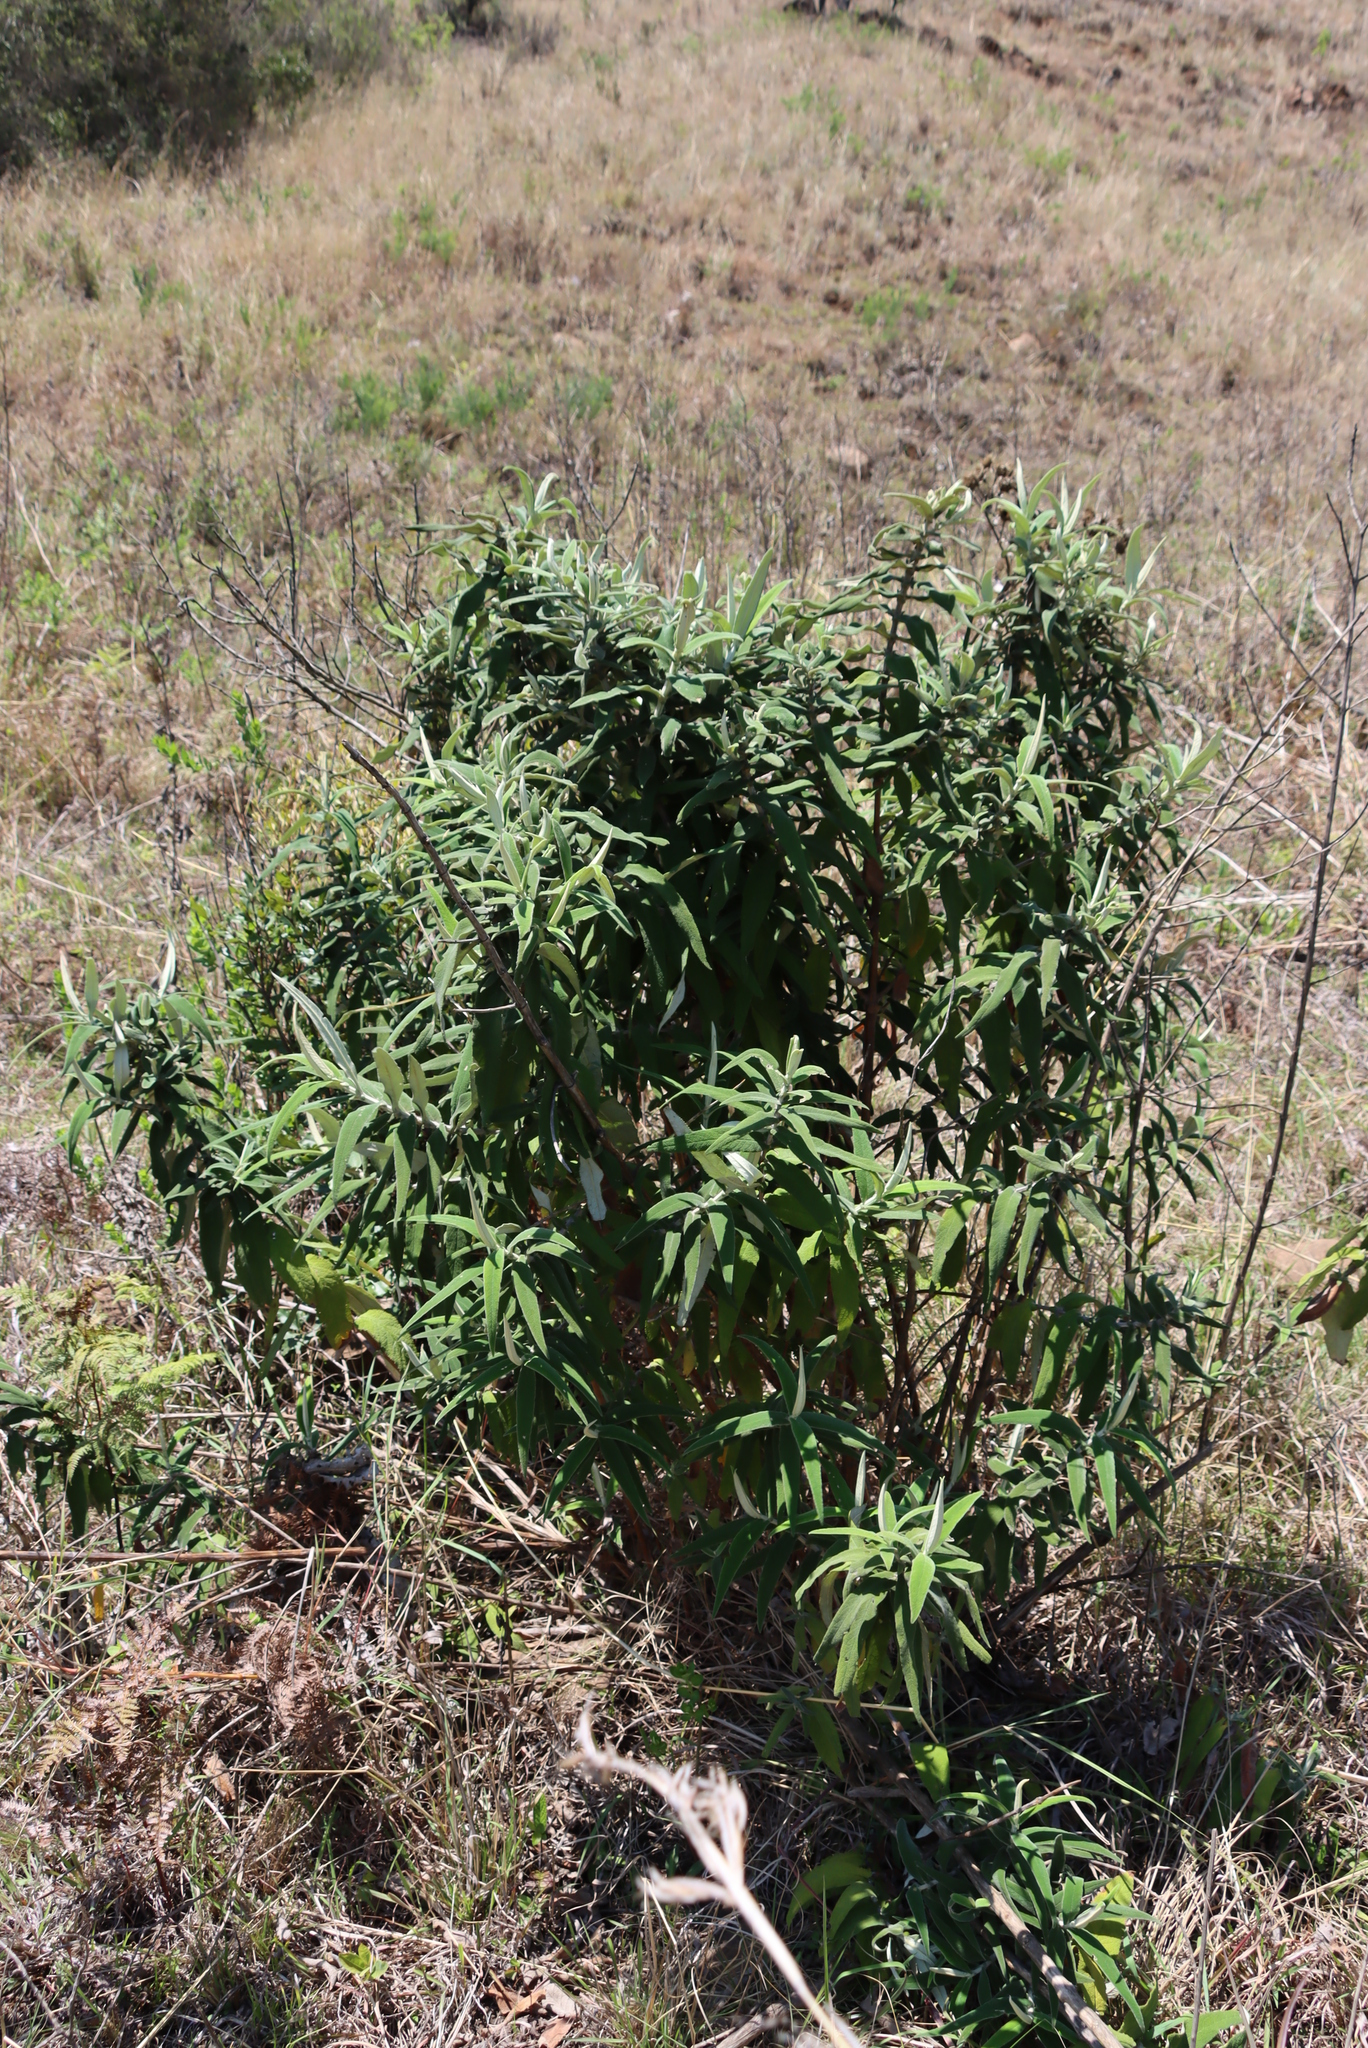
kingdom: Plantae
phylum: Tracheophyta
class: Magnoliopsida
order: Lamiales
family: Scrophulariaceae
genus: Buddleja
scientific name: Buddleja salviifolia
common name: Sagewood
